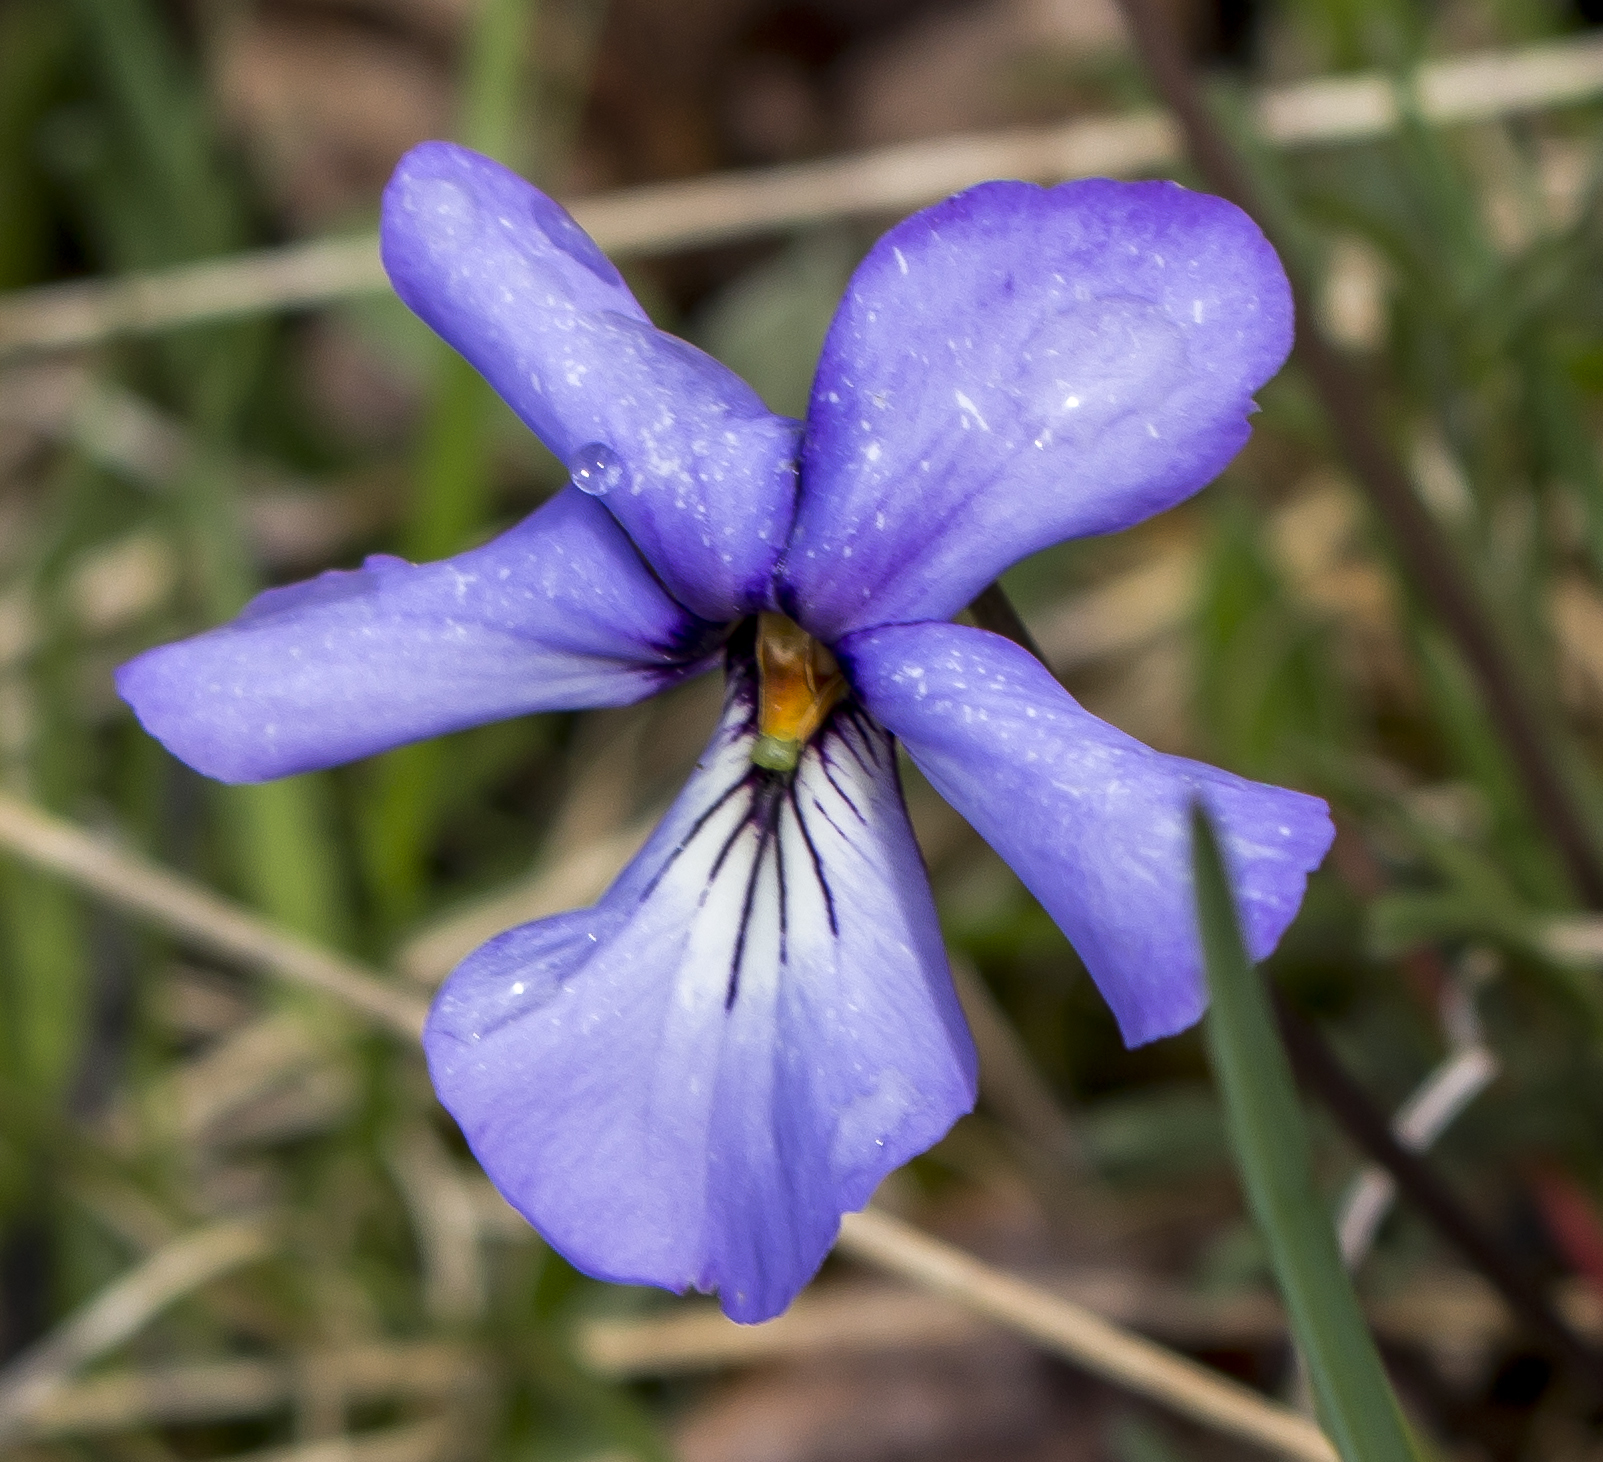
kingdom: Plantae
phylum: Tracheophyta
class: Magnoliopsida
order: Malpighiales
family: Violaceae
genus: Viola
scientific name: Viola pedata
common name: Pansy violet
